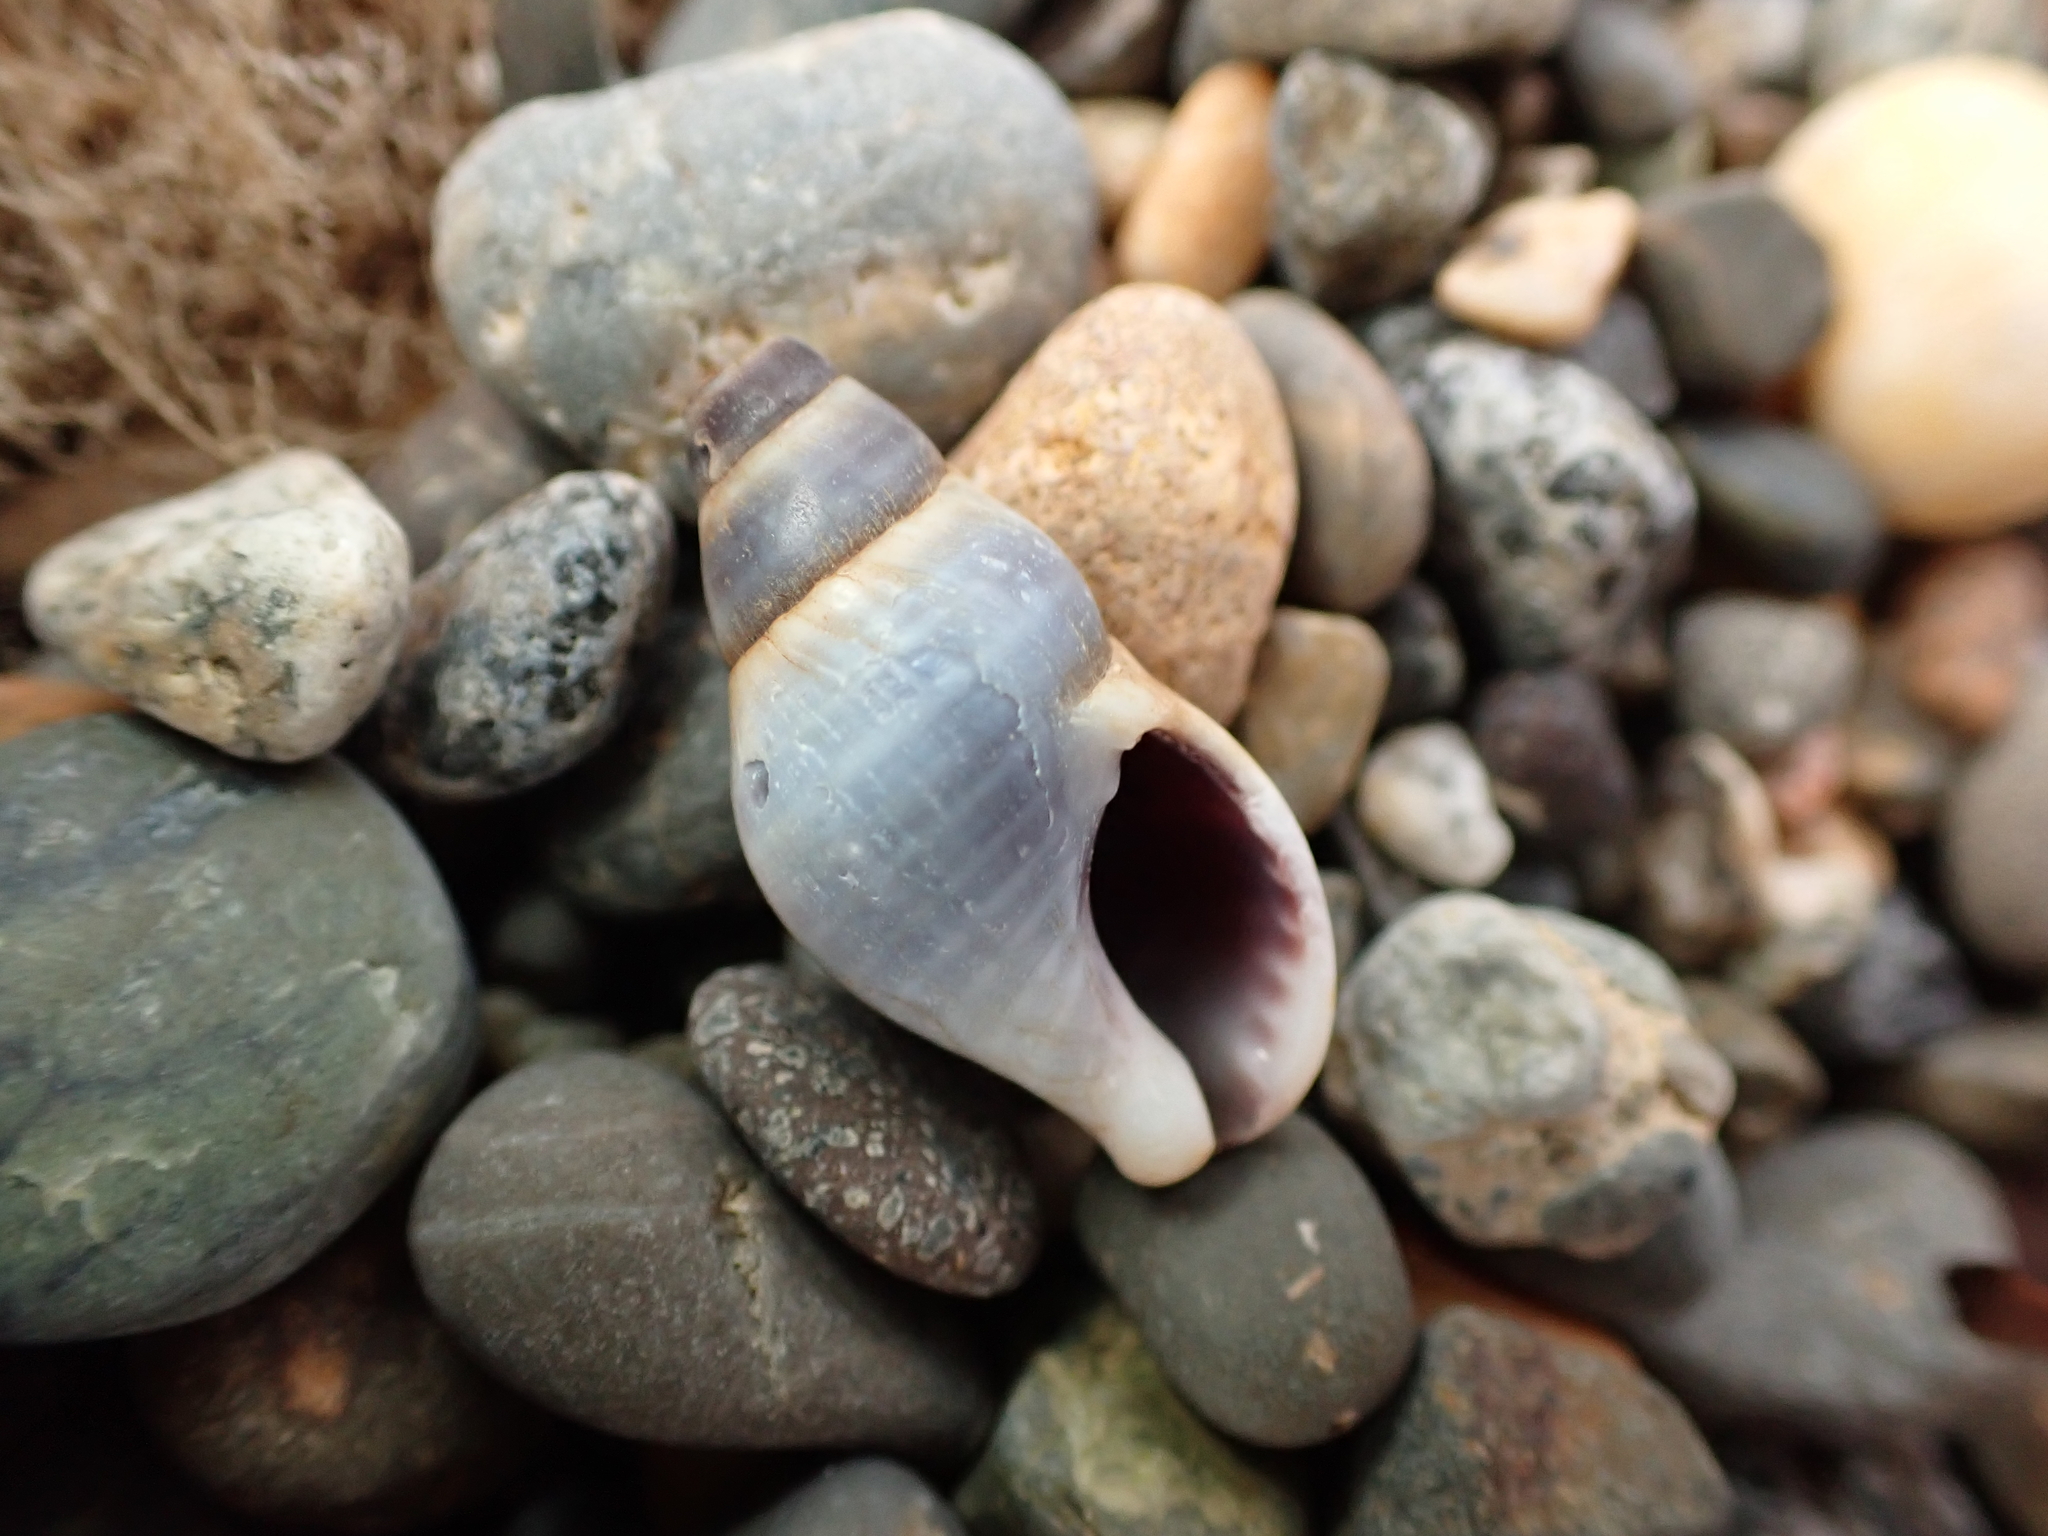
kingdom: Animalia
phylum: Mollusca
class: Gastropoda
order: Neogastropoda
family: Tudiclidae
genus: Buccinulum
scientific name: Buccinulum littorinoides
